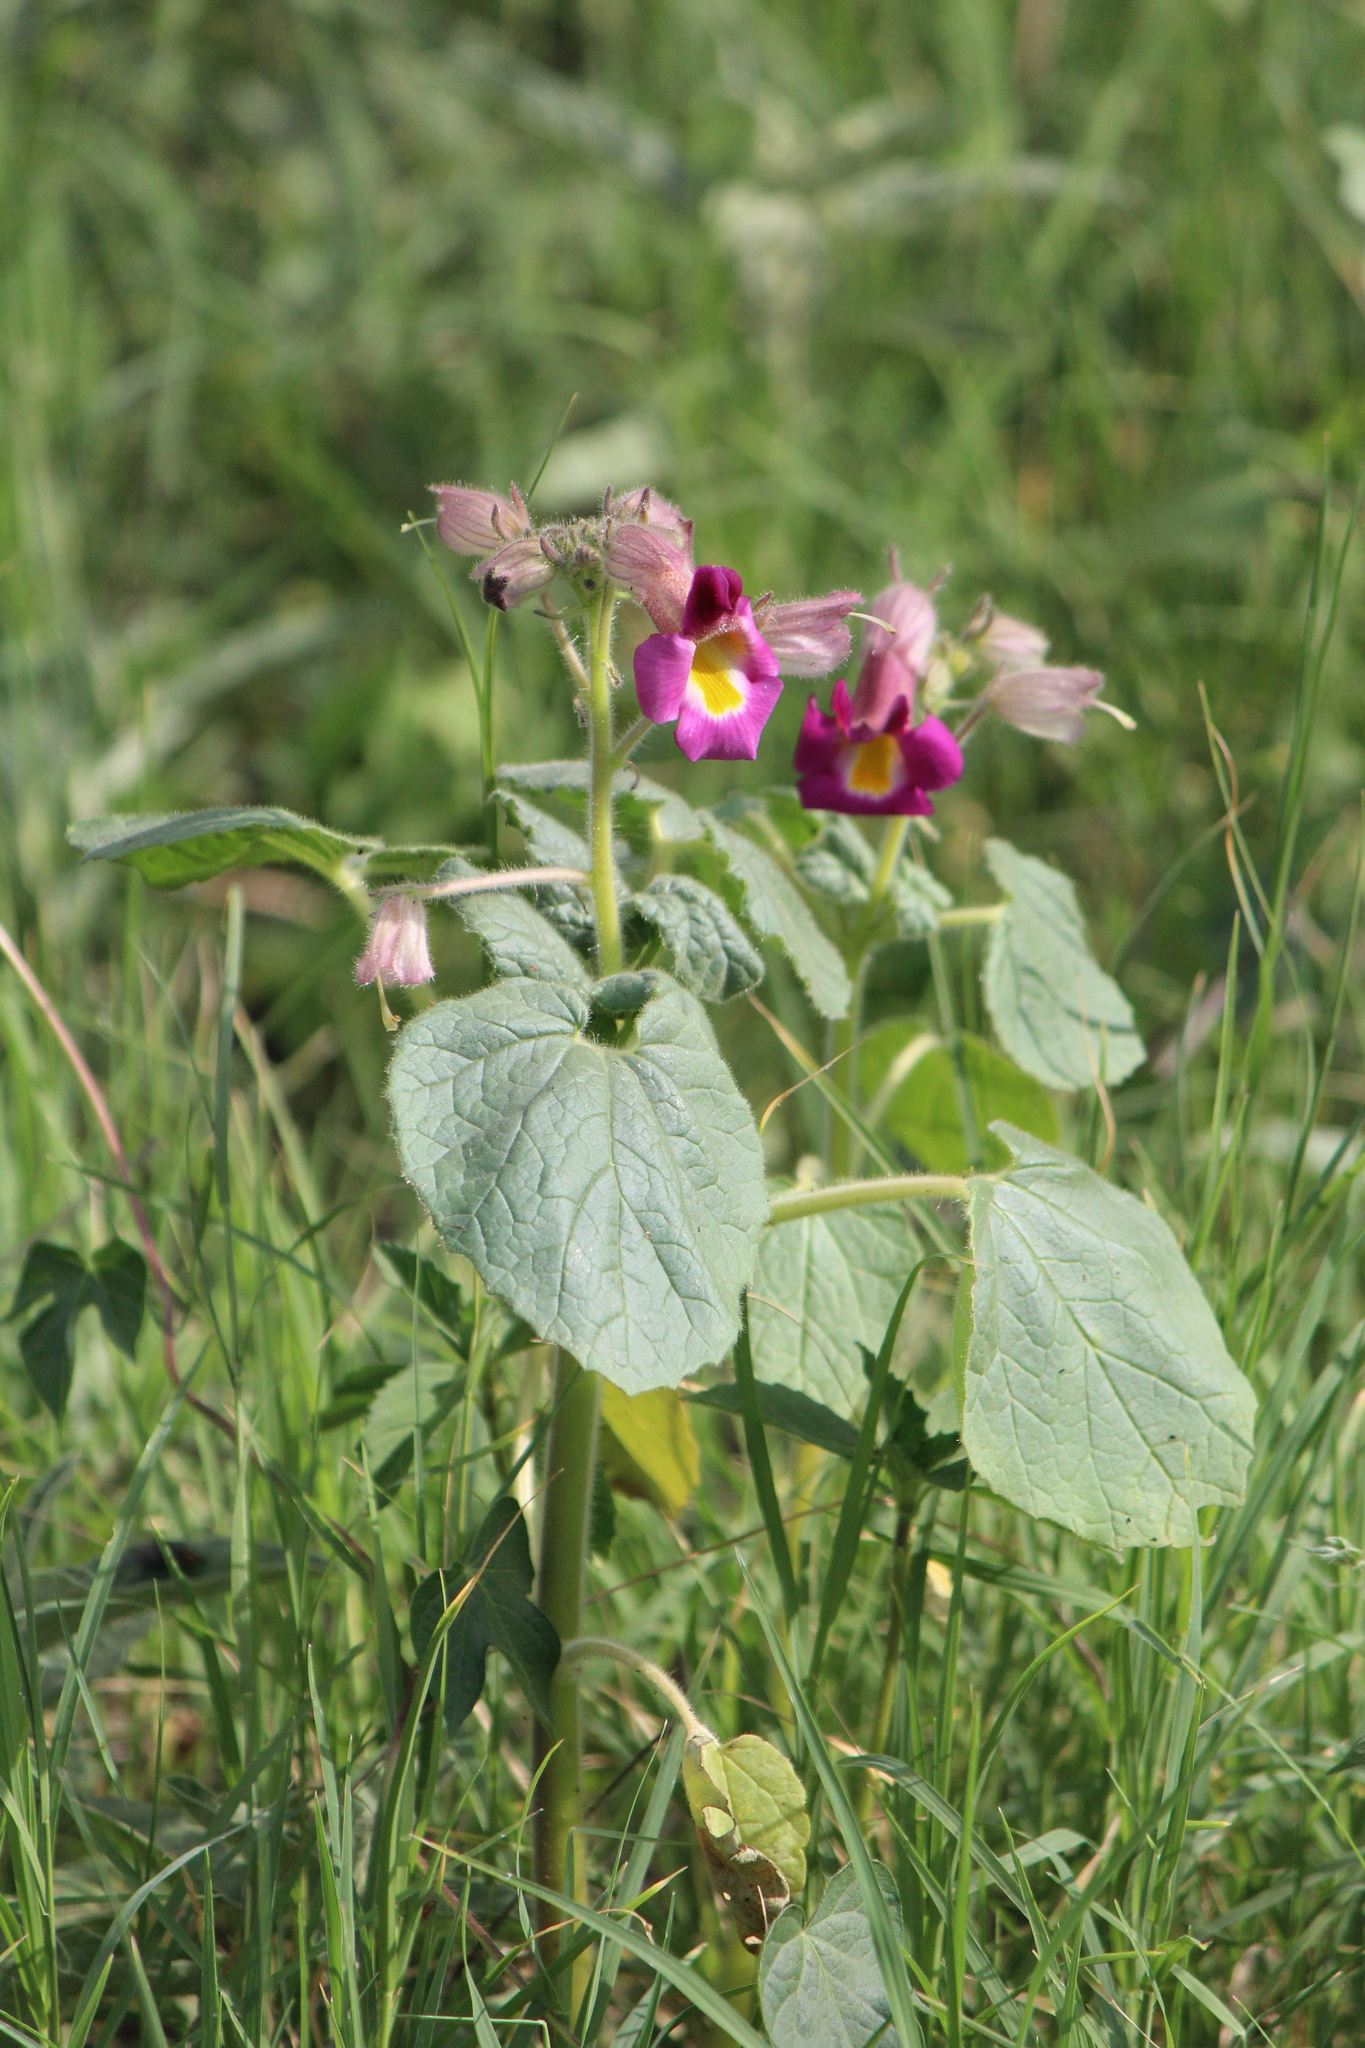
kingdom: Plantae
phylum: Tracheophyta
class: Magnoliopsida
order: Lamiales
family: Martyniaceae
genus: Proboscidea
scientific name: Proboscidea parviflora
